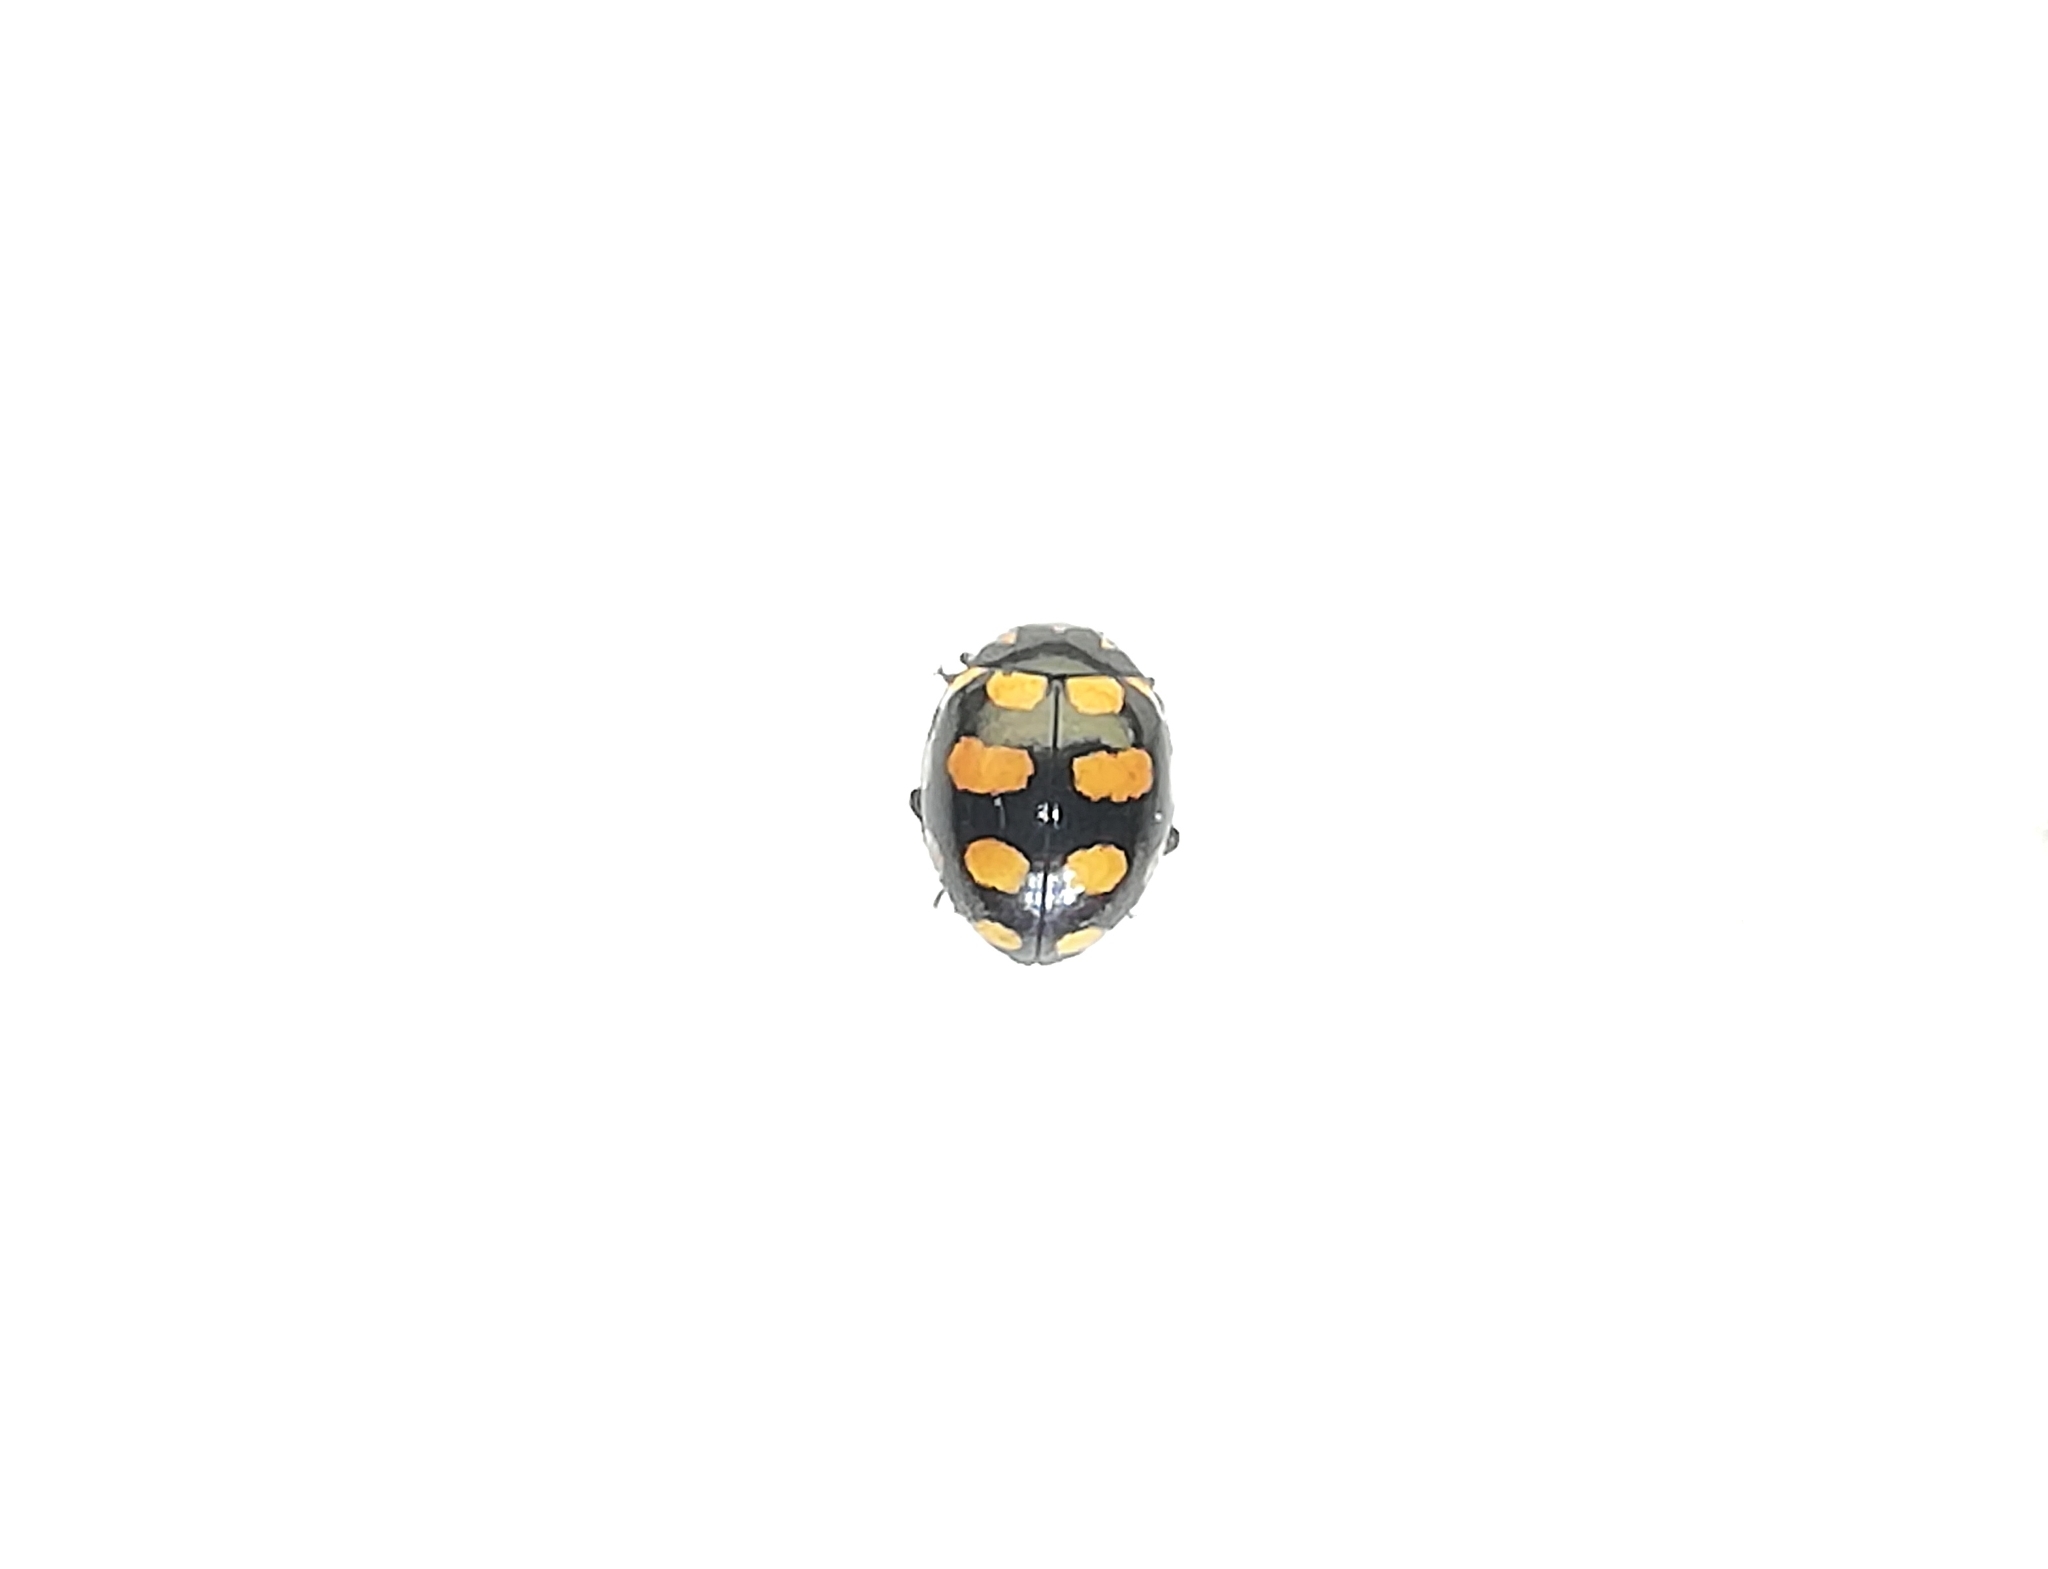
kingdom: Animalia
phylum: Arthropoda
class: Insecta
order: Coleoptera
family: Coccinellidae
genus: Coccinula
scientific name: Coccinula quatuordecimpustulata
